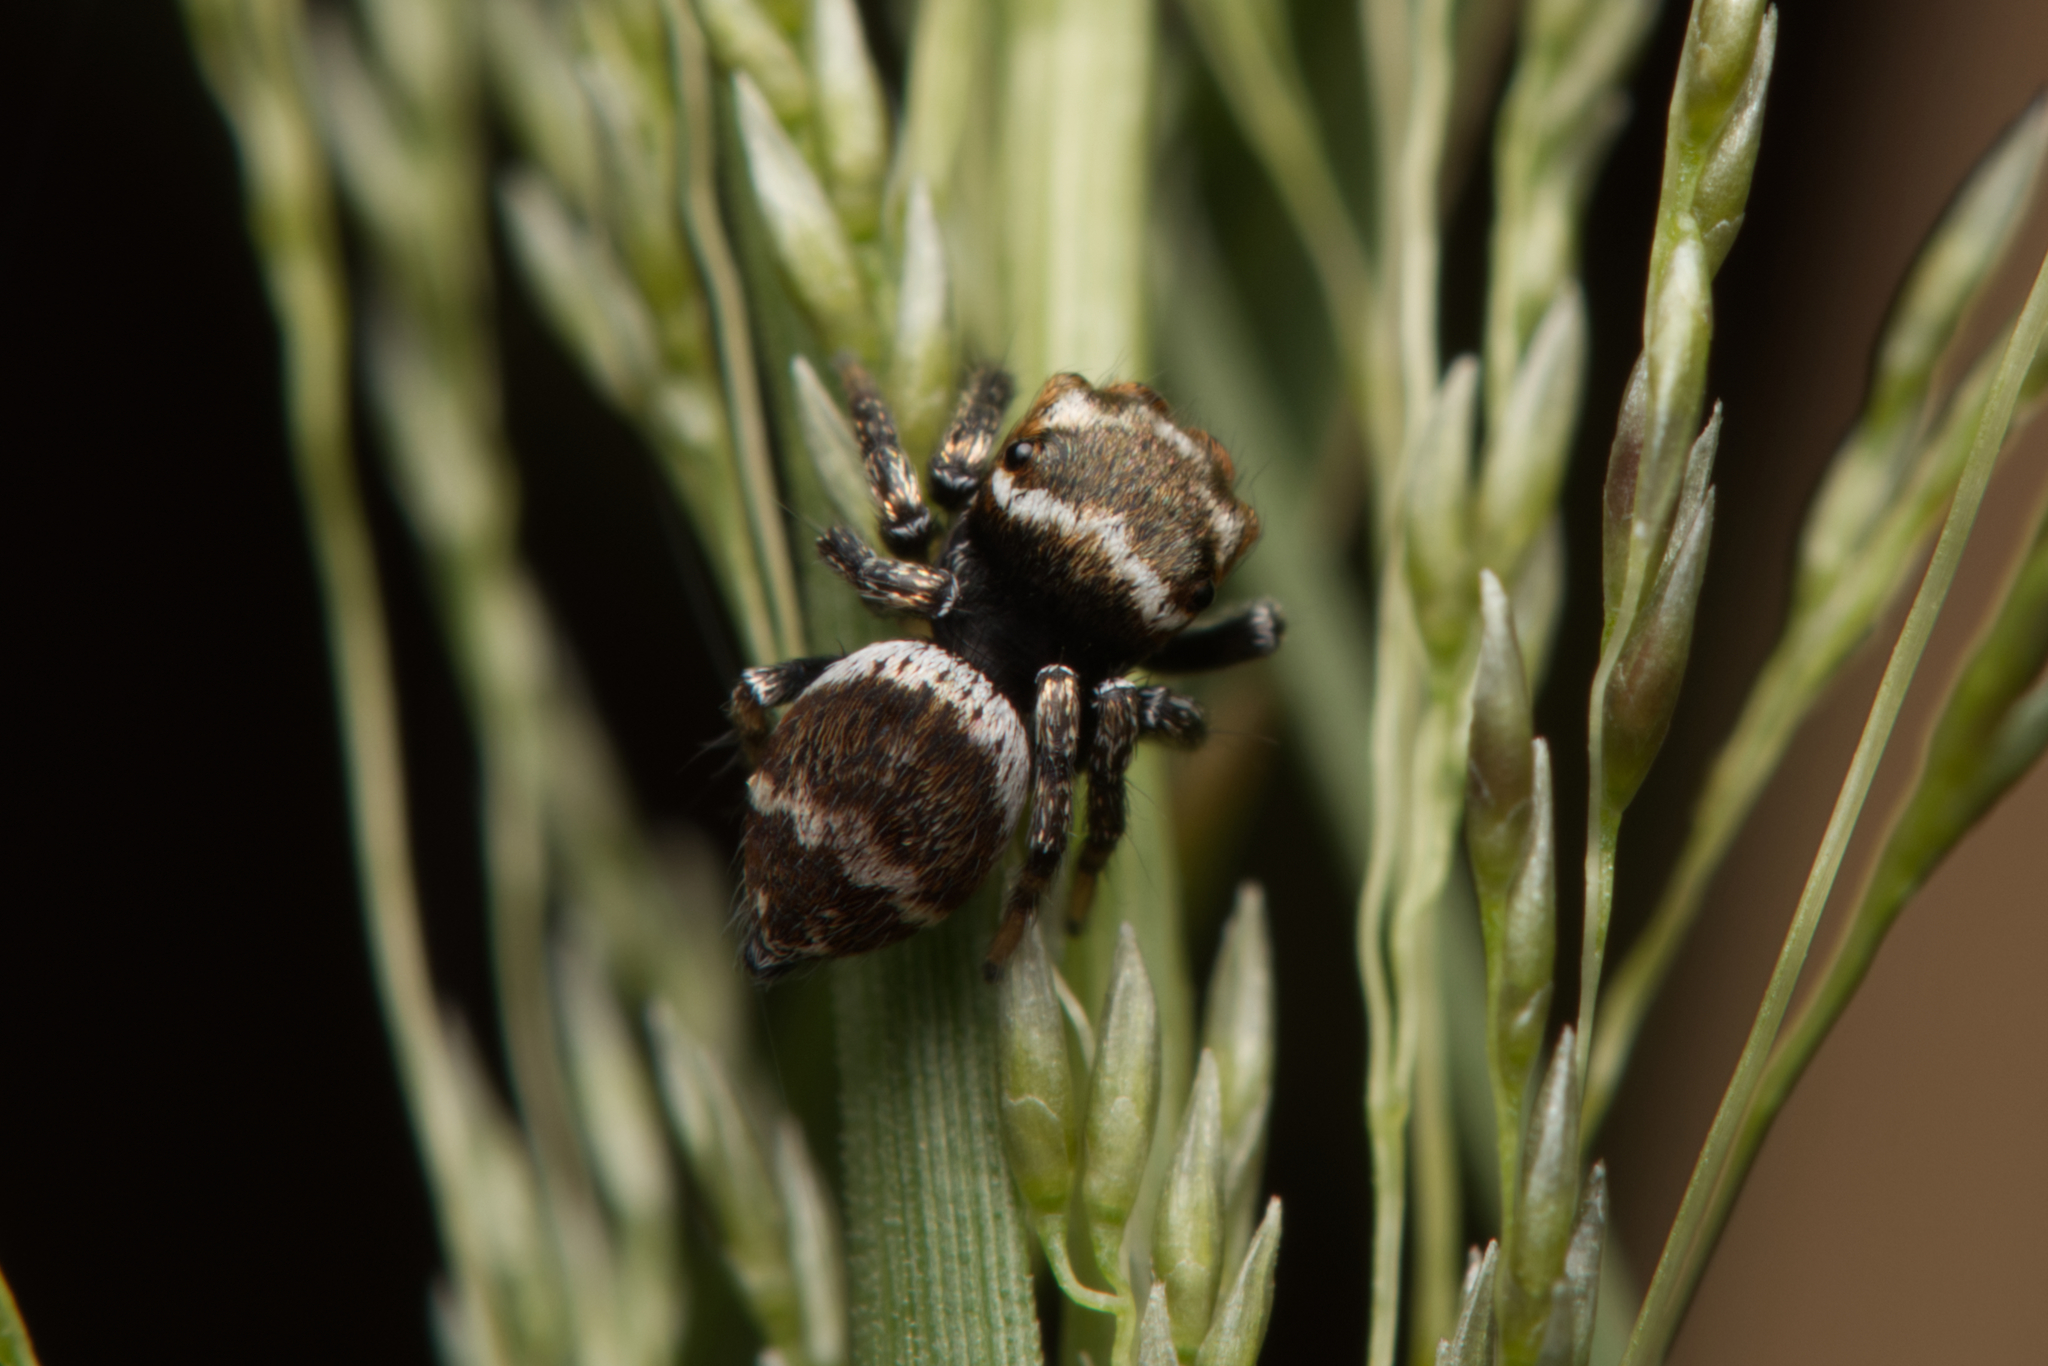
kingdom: Animalia
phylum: Arthropoda
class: Arachnida
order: Araneae
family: Salticidae
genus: Euryattus
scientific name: Euryattus bleekeri
